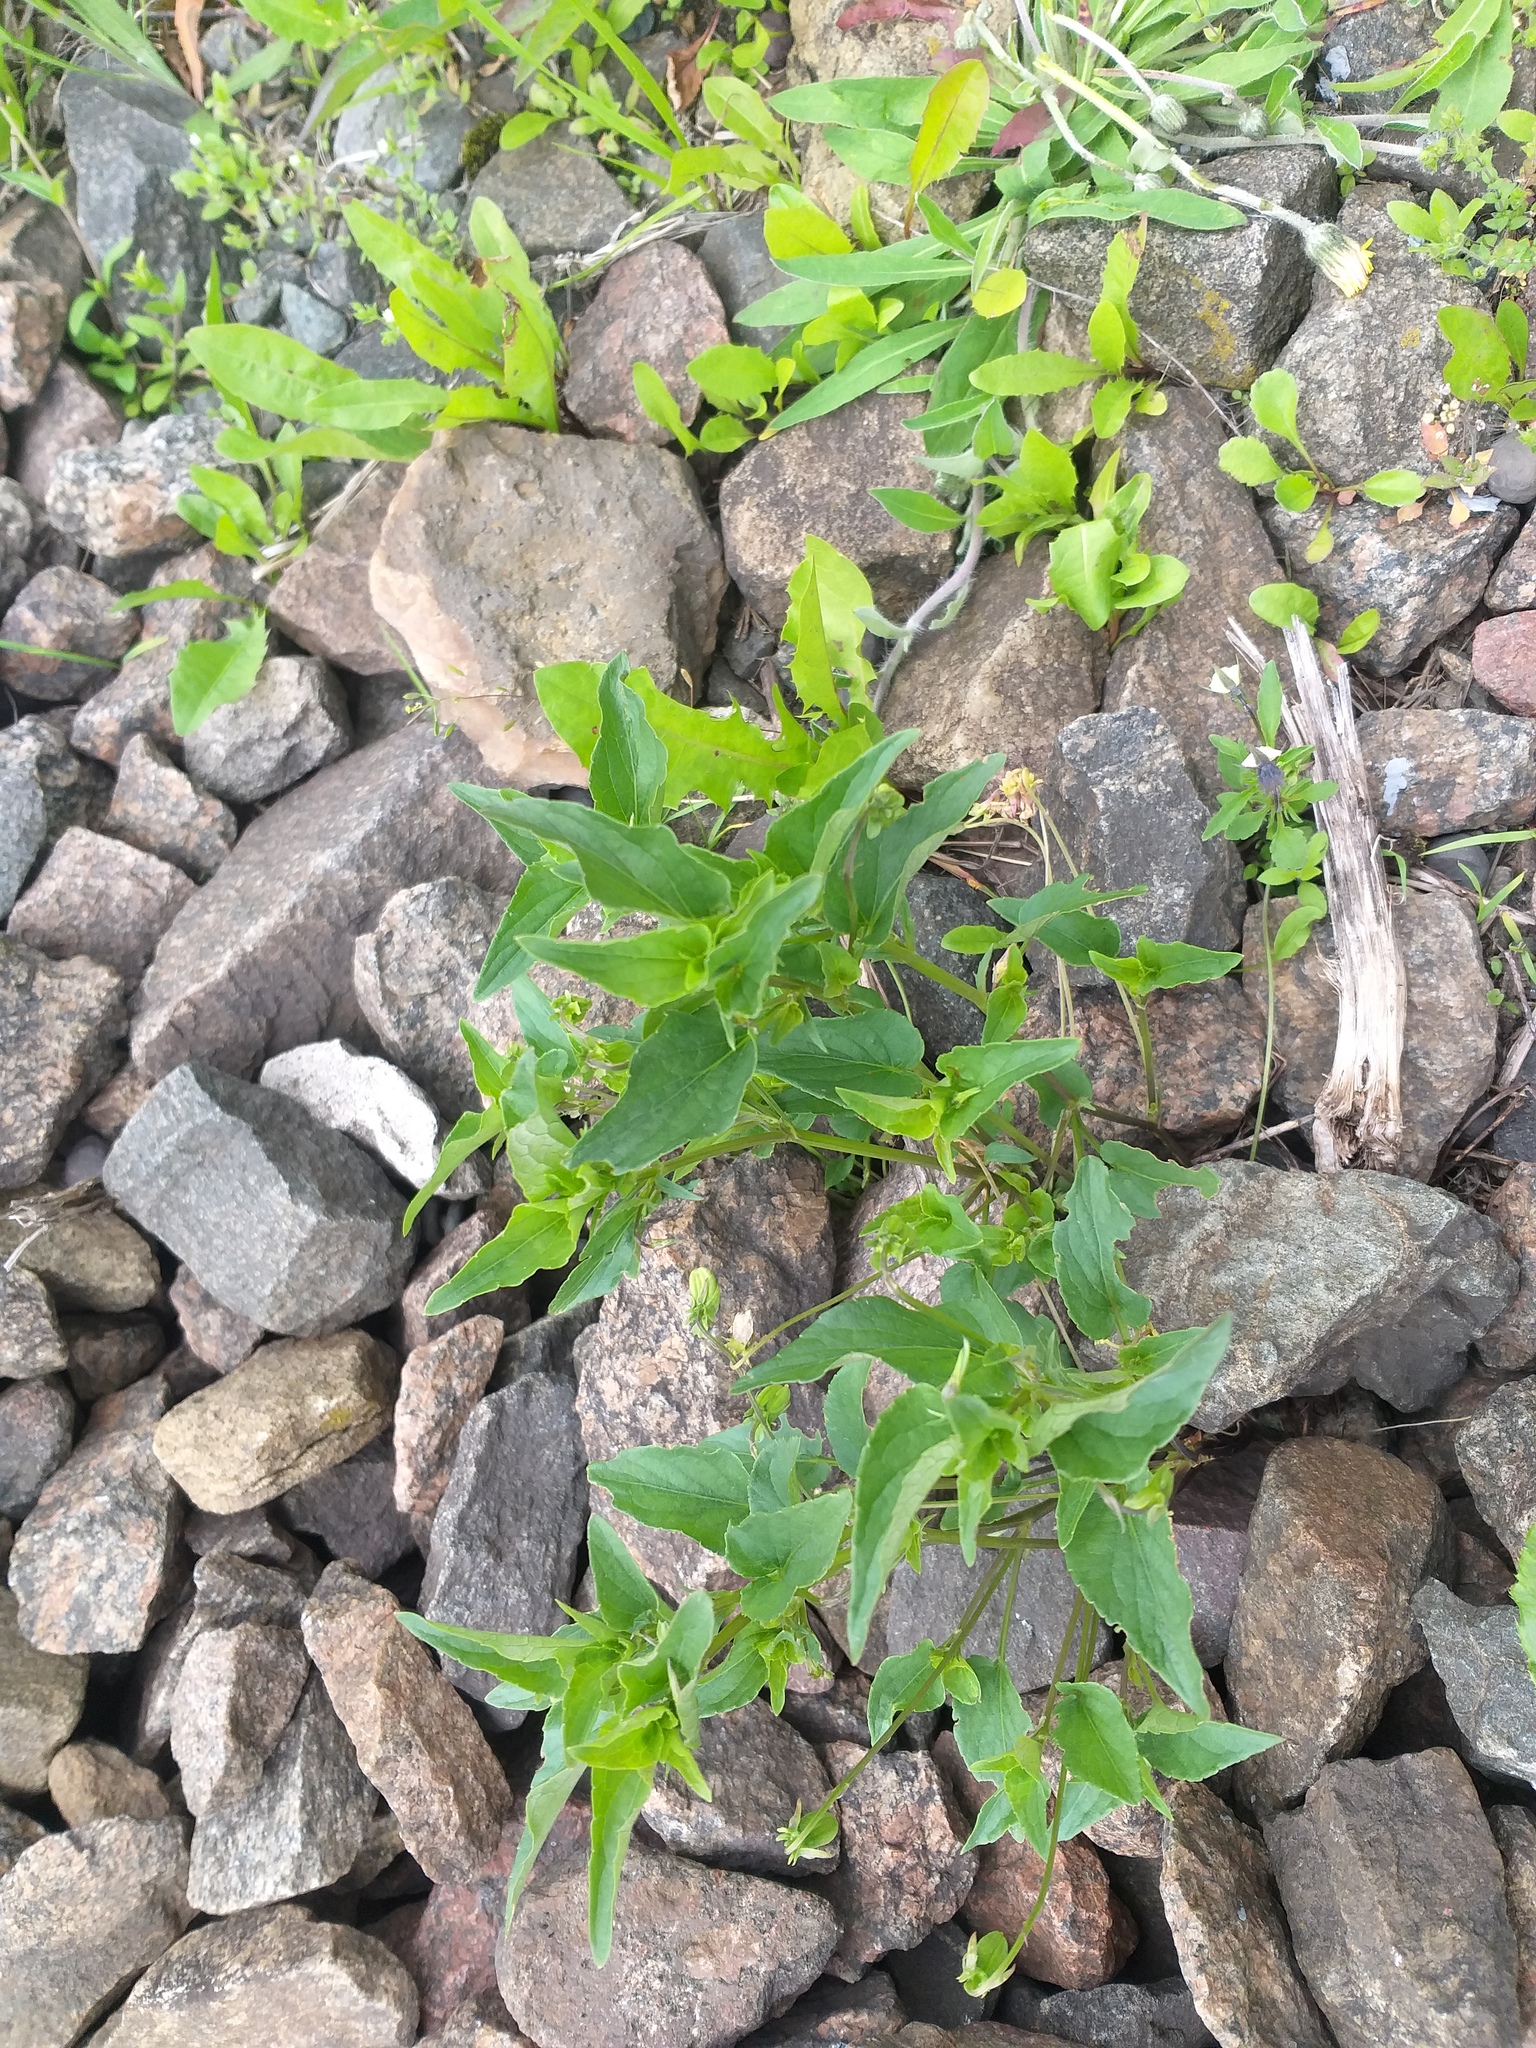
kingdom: Plantae
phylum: Tracheophyta
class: Magnoliopsida
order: Malpighiales
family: Violaceae
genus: Viola
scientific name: Viola canina
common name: Heath dog-violet
